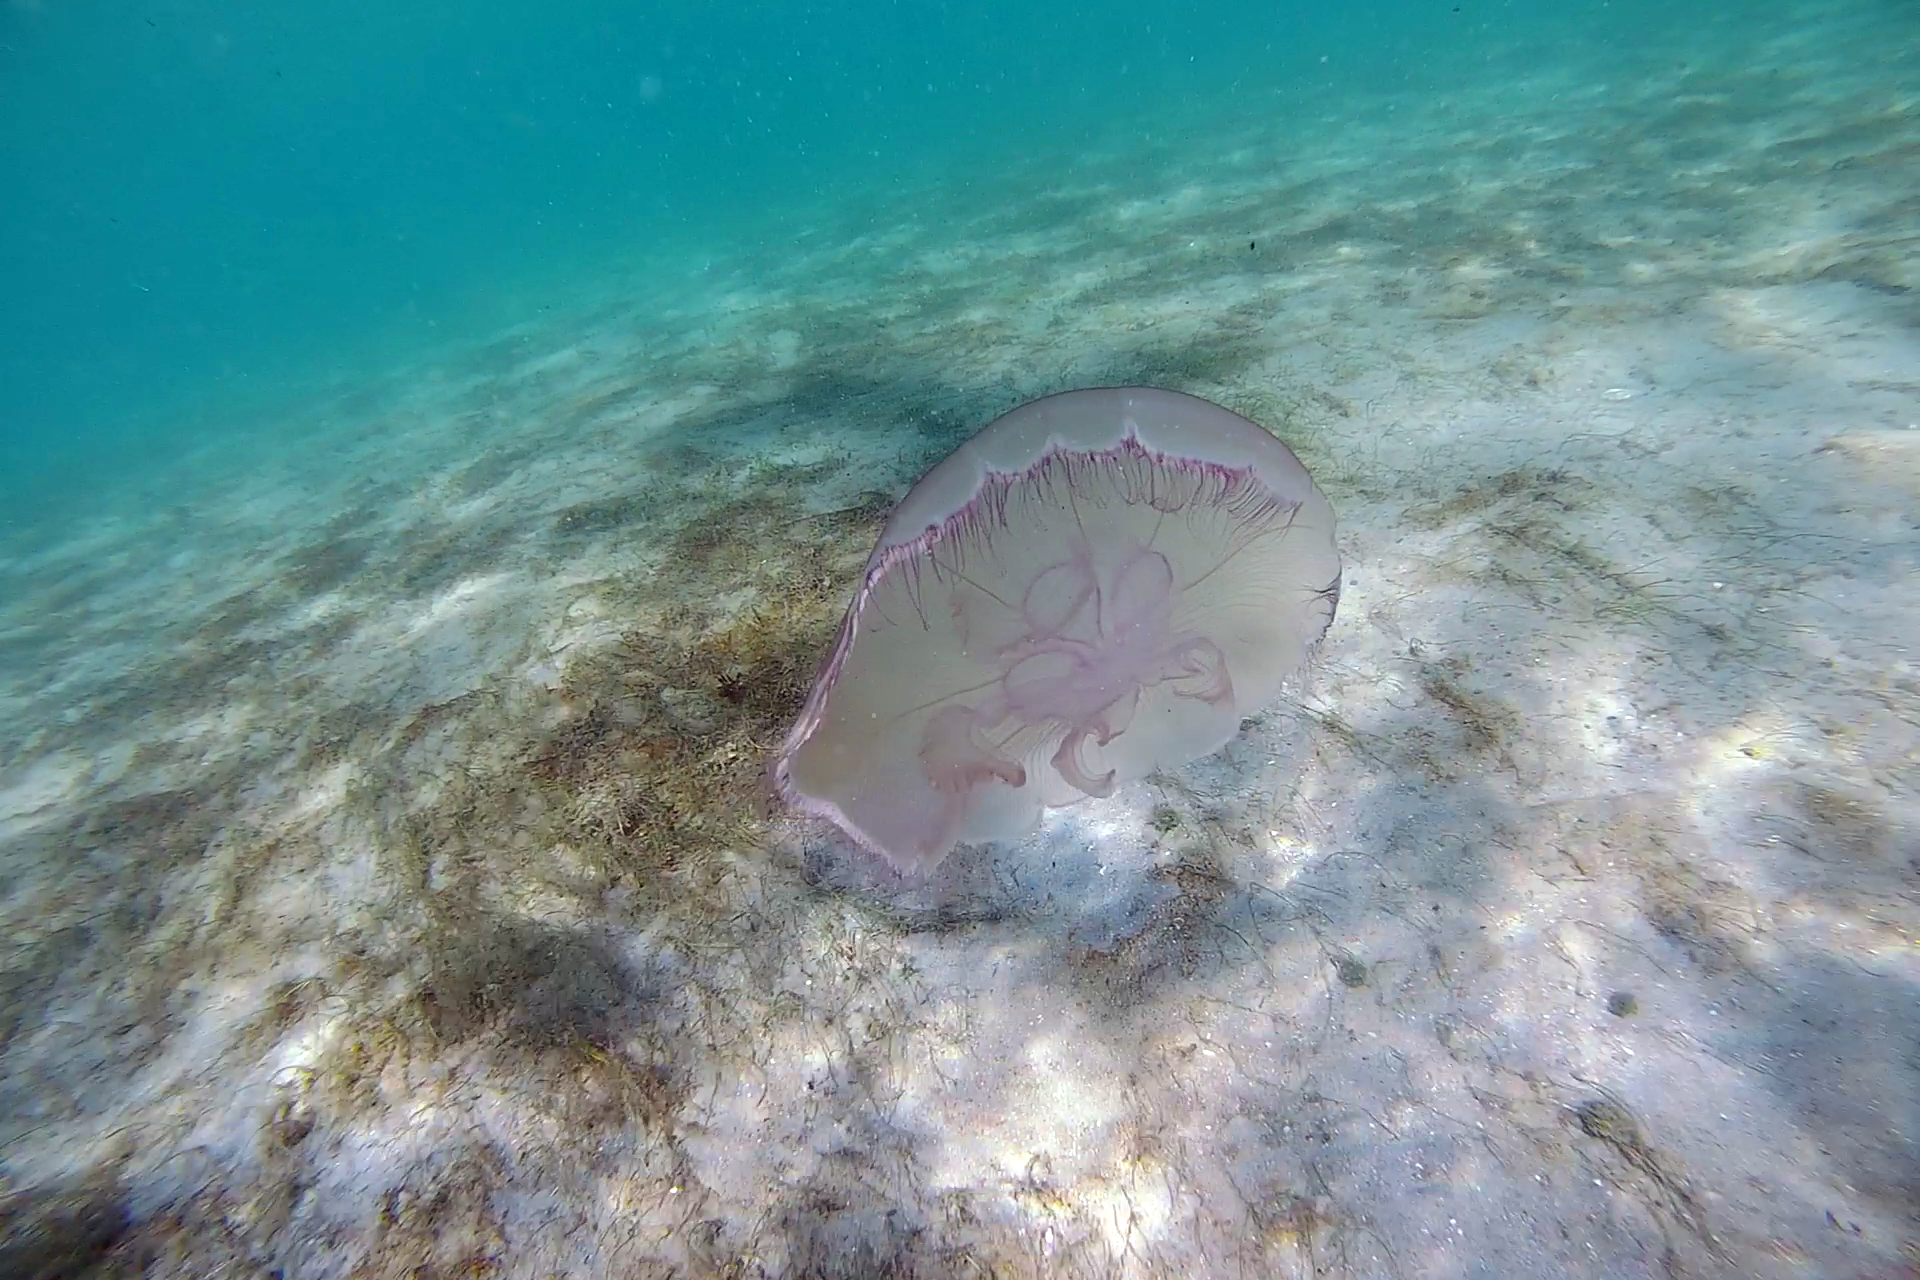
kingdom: Animalia
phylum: Cnidaria
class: Scyphozoa
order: Semaeostomeae
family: Ulmaridae
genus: Aurelia
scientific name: Aurelia marginalis
